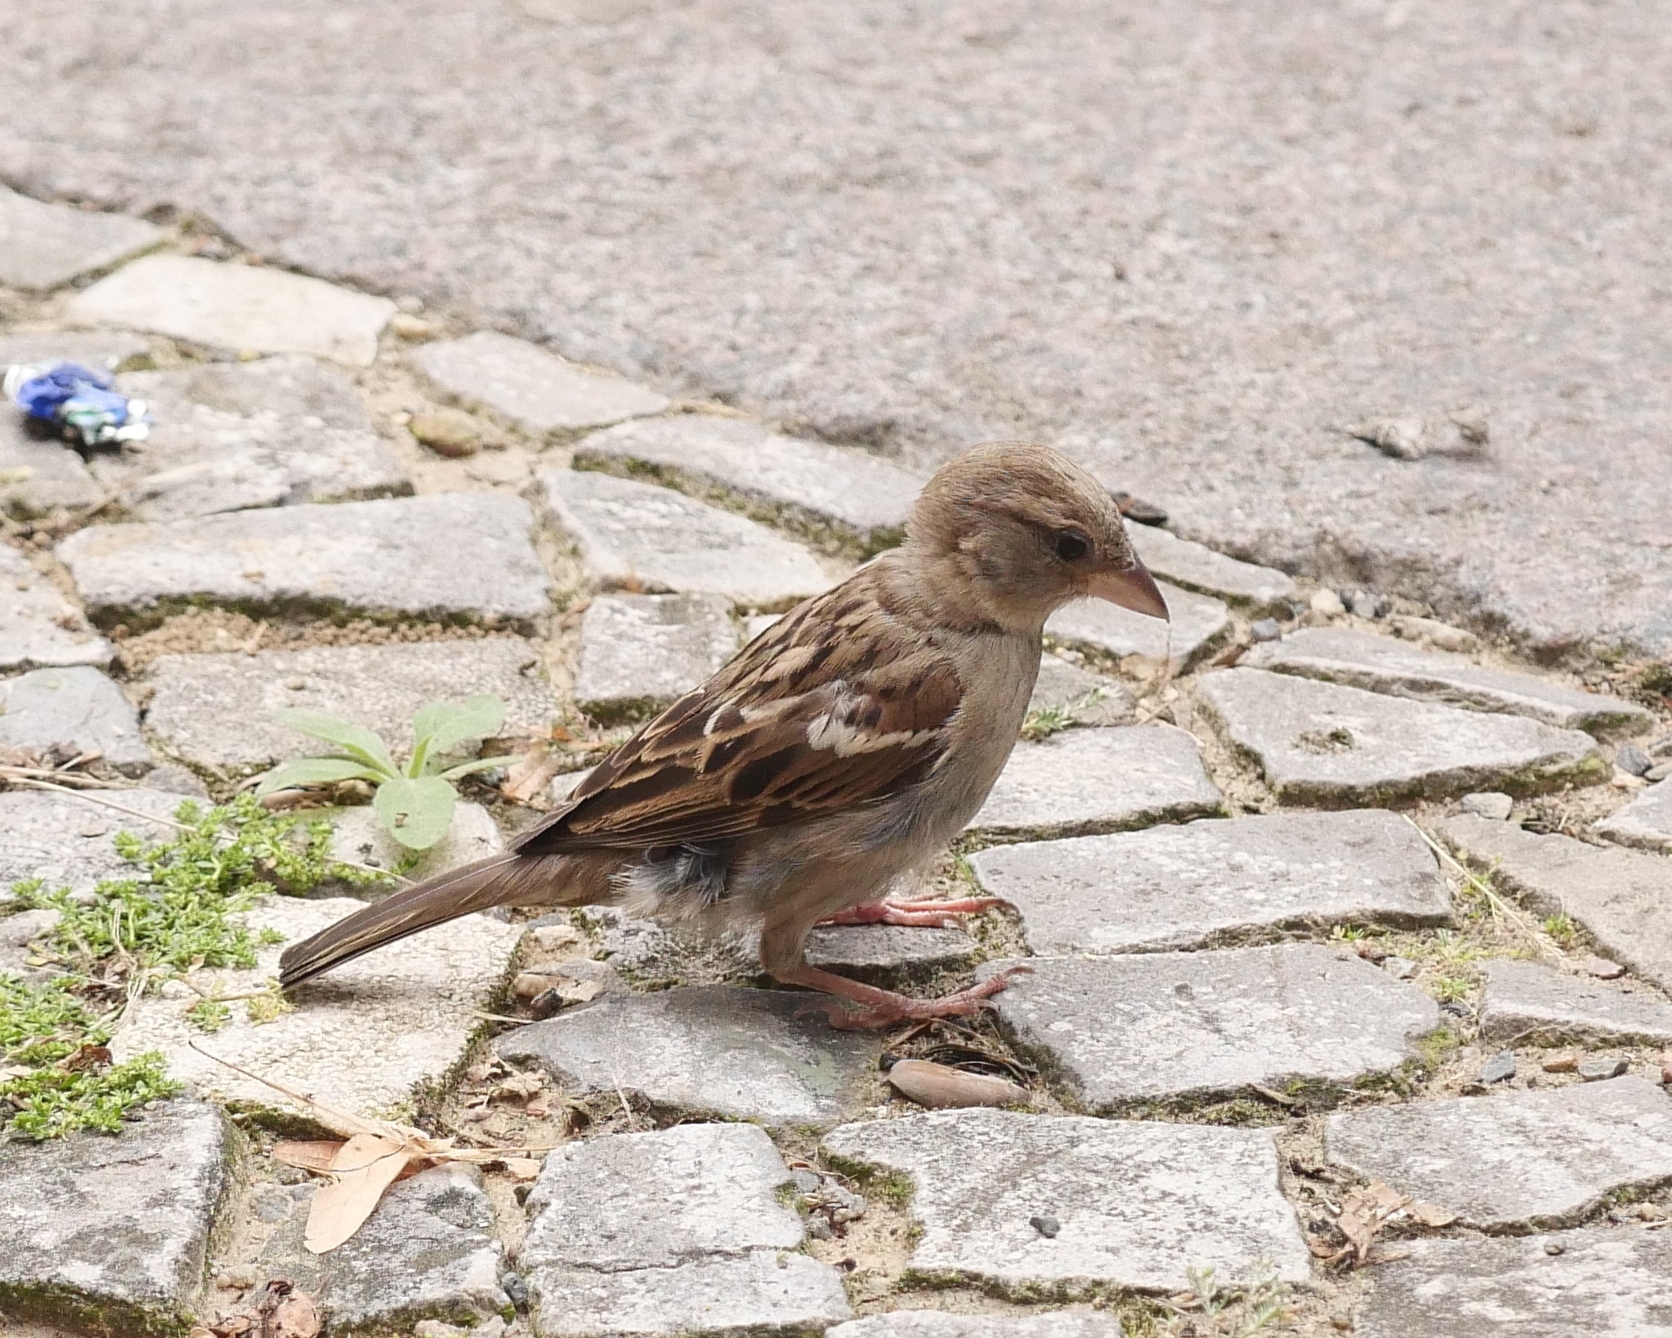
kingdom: Animalia
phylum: Chordata
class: Aves
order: Passeriformes
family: Passeridae
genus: Passer
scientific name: Passer domesticus
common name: House sparrow
